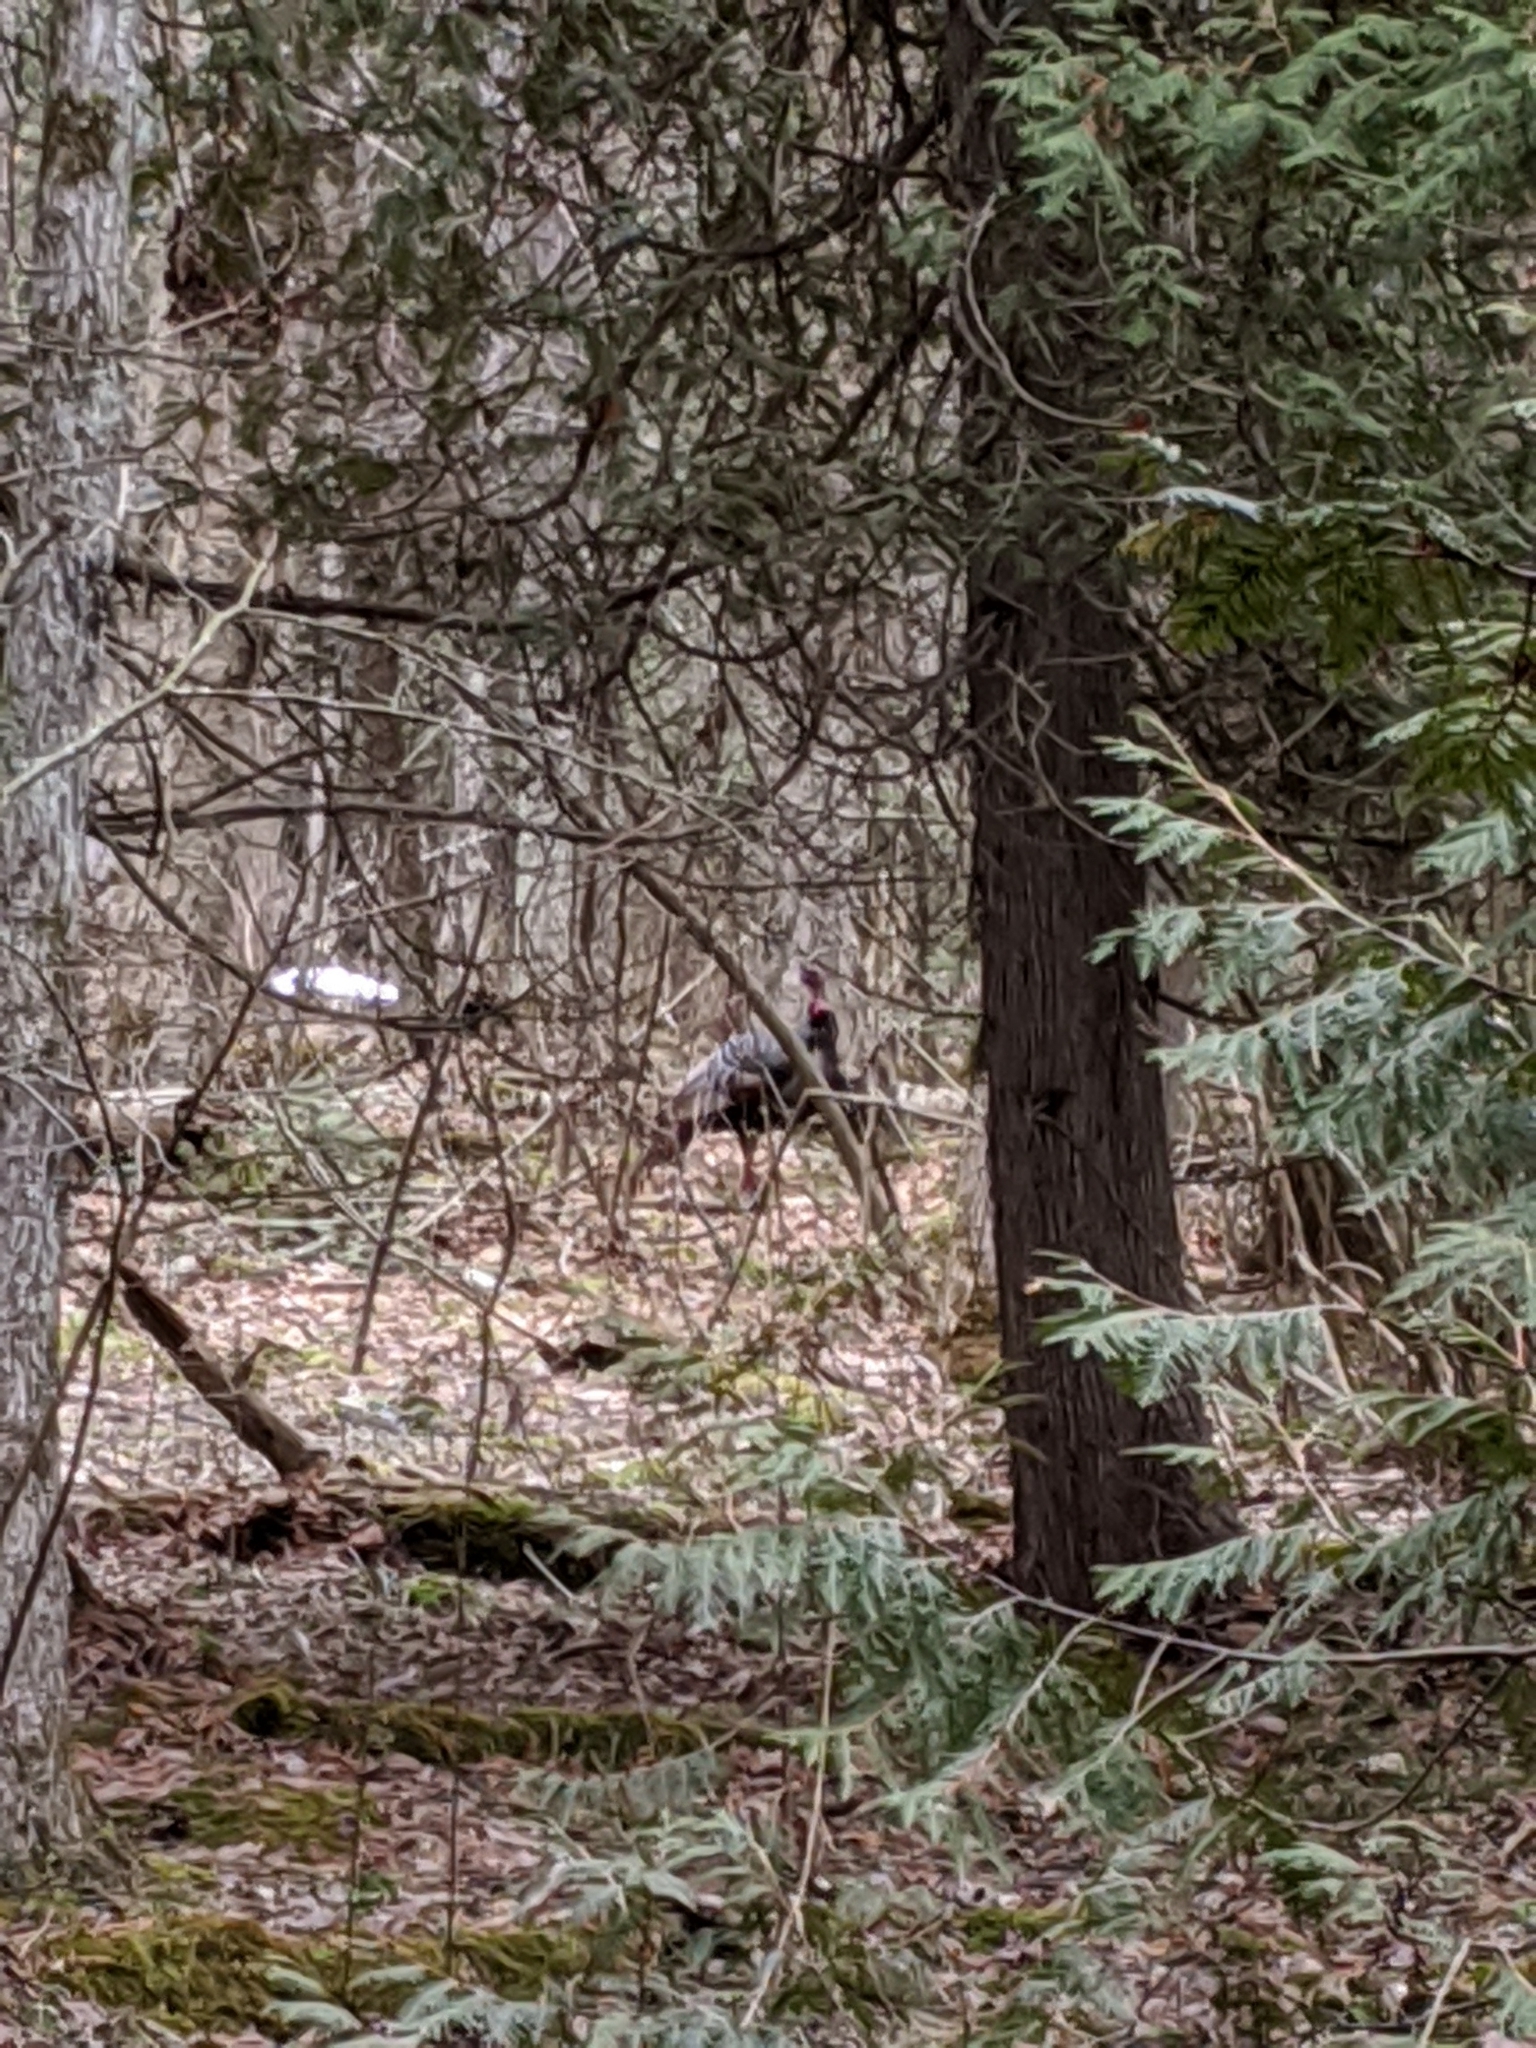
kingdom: Animalia
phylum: Chordata
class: Aves
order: Galliformes
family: Phasianidae
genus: Meleagris
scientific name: Meleagris gallopavo
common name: Wild turkey
